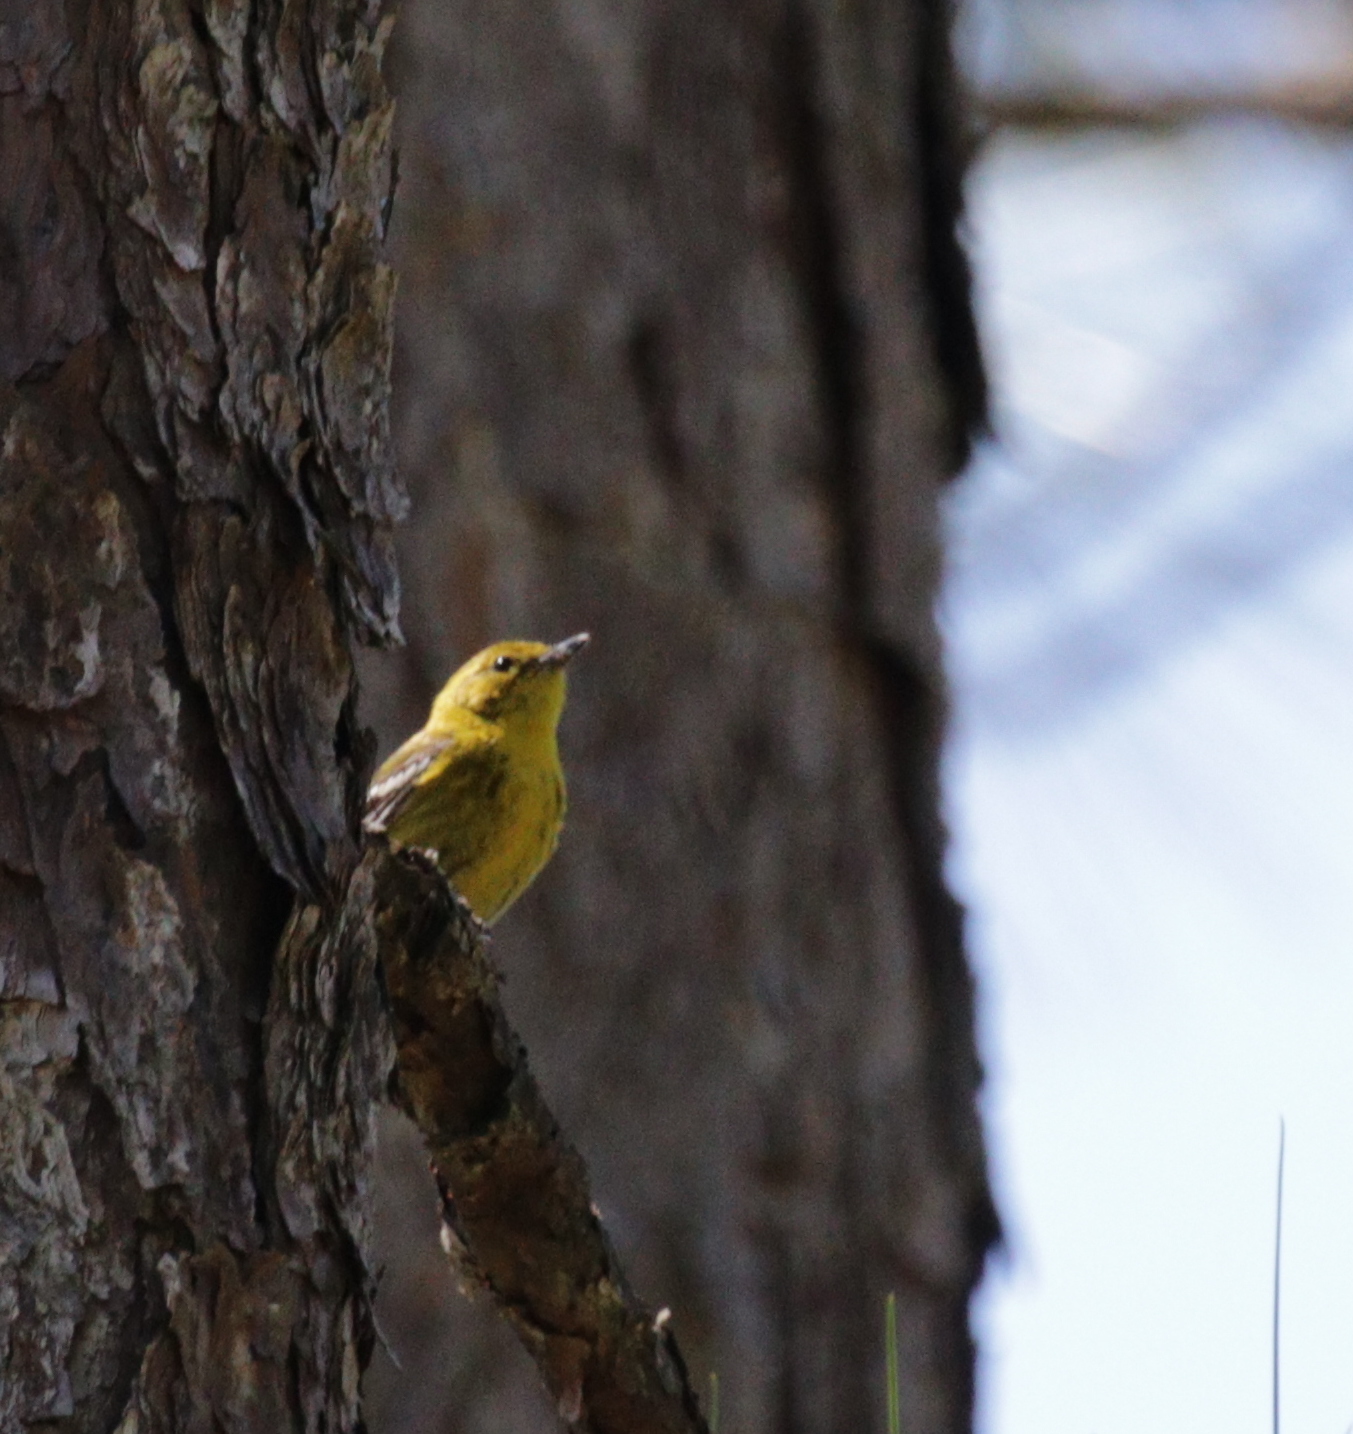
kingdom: Animalia
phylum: Chordata
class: Aves
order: Passeriformes
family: Parulidae
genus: Setophaga
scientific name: Setophaga pinus
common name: Pine warbler
